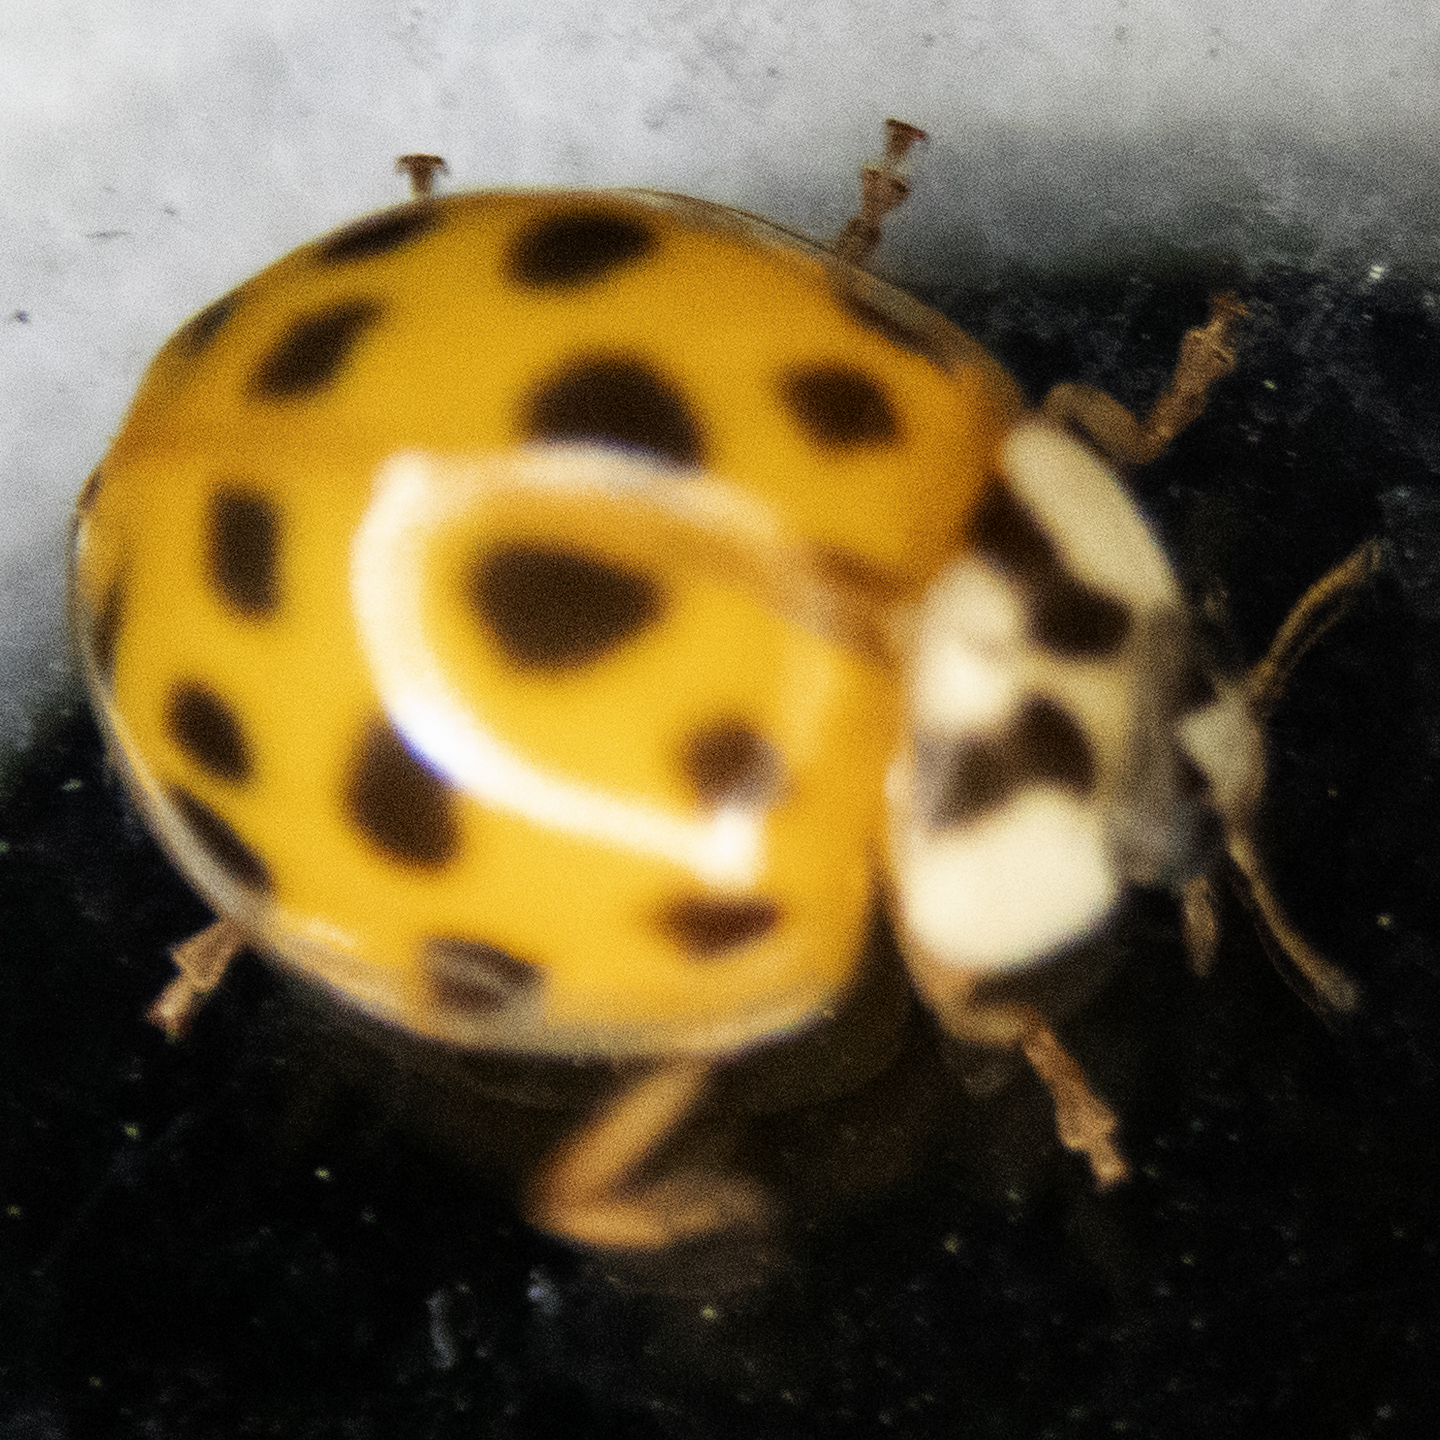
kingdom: Animalia
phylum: Arthropoda
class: Insecta
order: Coleoptera
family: Coccinellidae
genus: Harmonia
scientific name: Harmonia axyridis
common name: Harlequin ladybird
